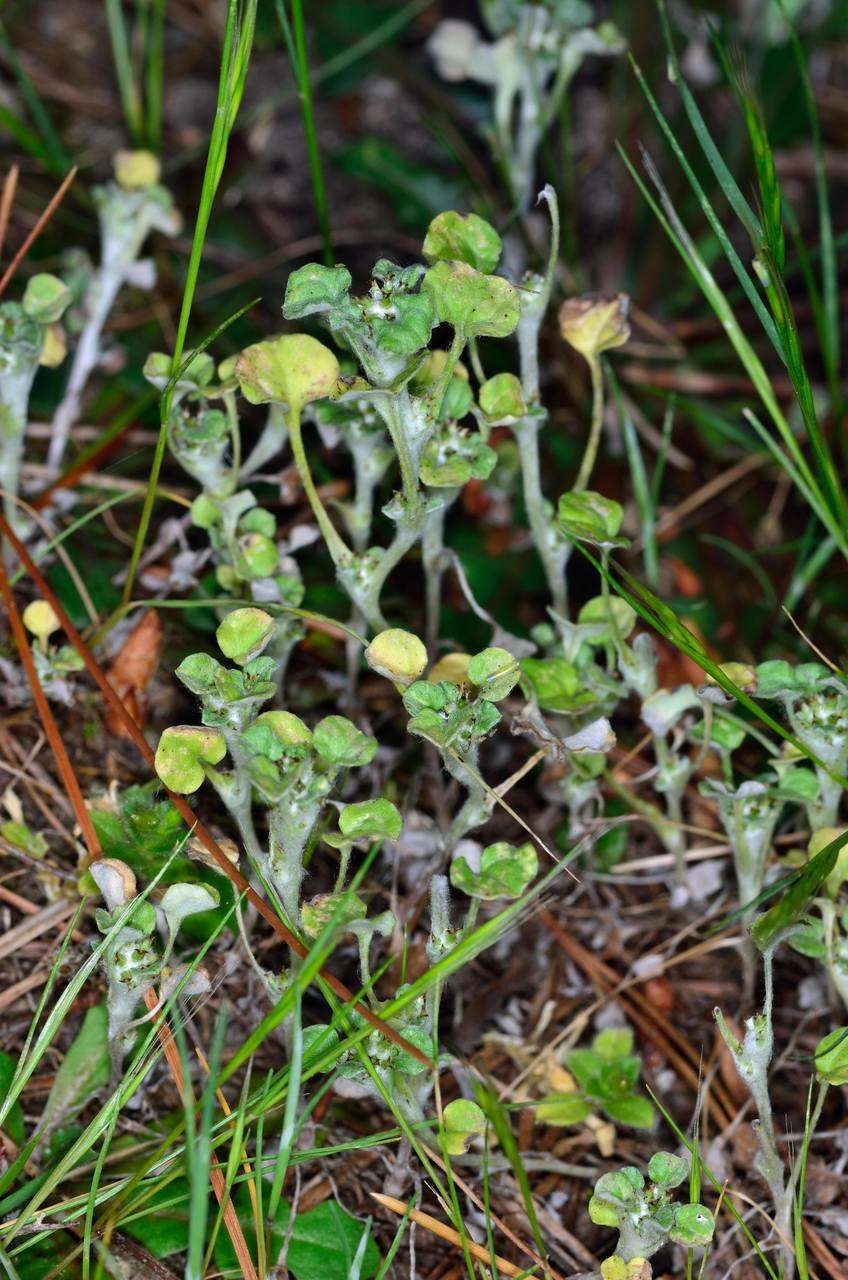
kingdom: Plantae
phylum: Tracheophyta
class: Magnoliopsida
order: Asterales
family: Asteraceae
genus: Stuartina
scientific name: Stuartina muelleri
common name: Spoon-leaved cudweed
